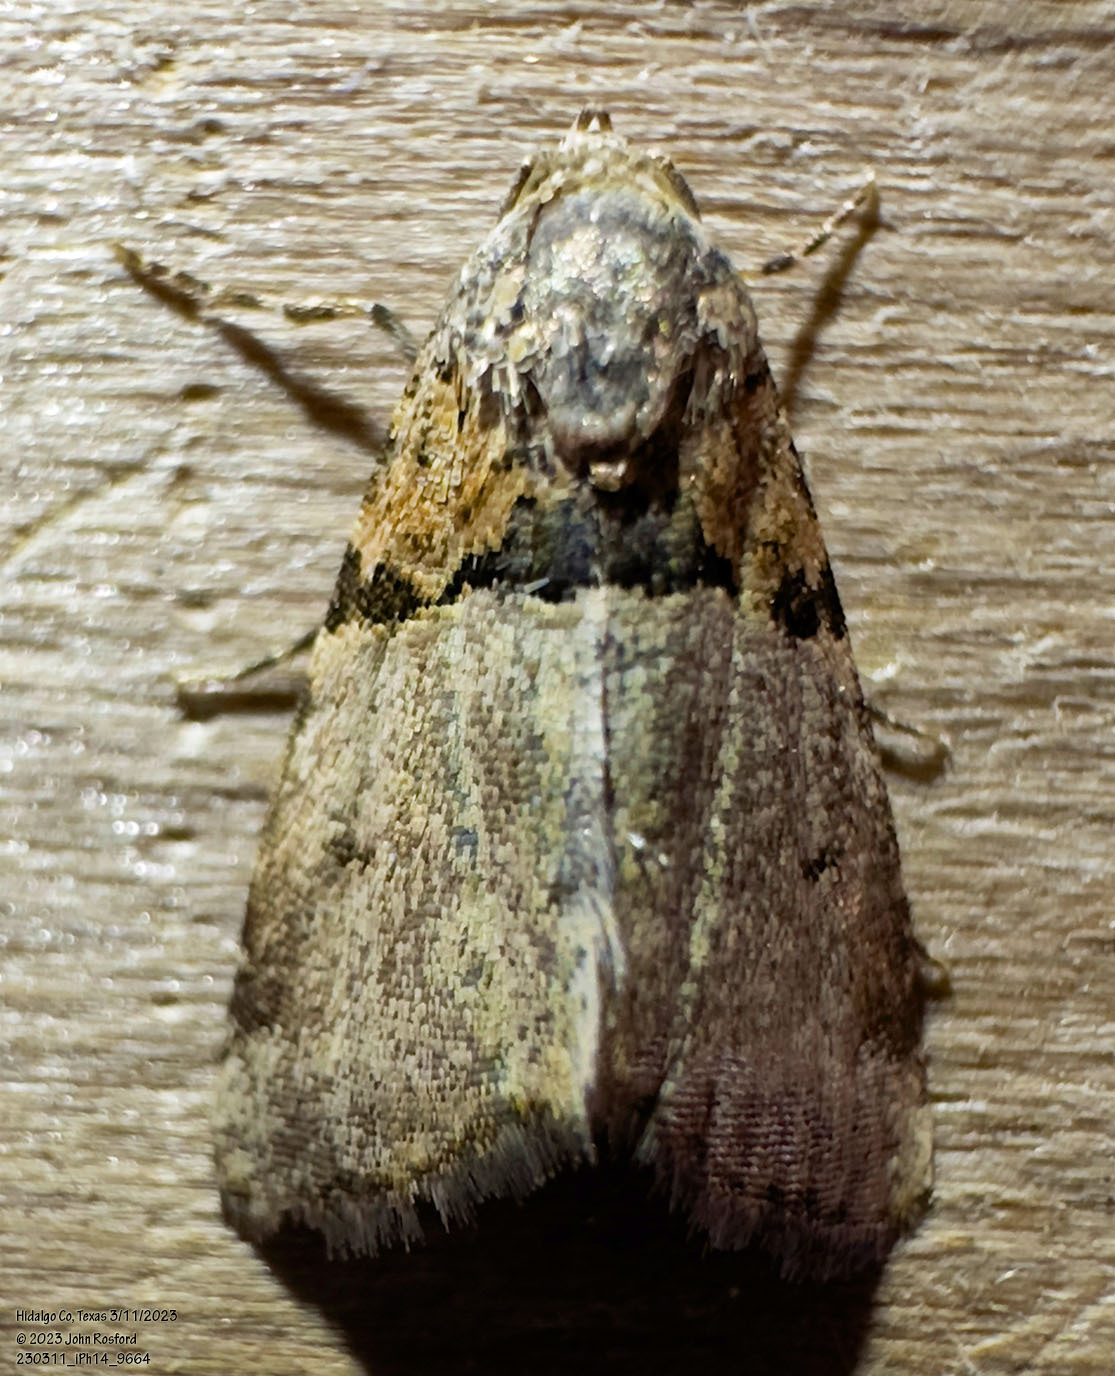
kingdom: Animalia
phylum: Arthropoda
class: Insecta
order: Lepidoptera
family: Noctuidae
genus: Cobubatha
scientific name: Cobubatha dividua
